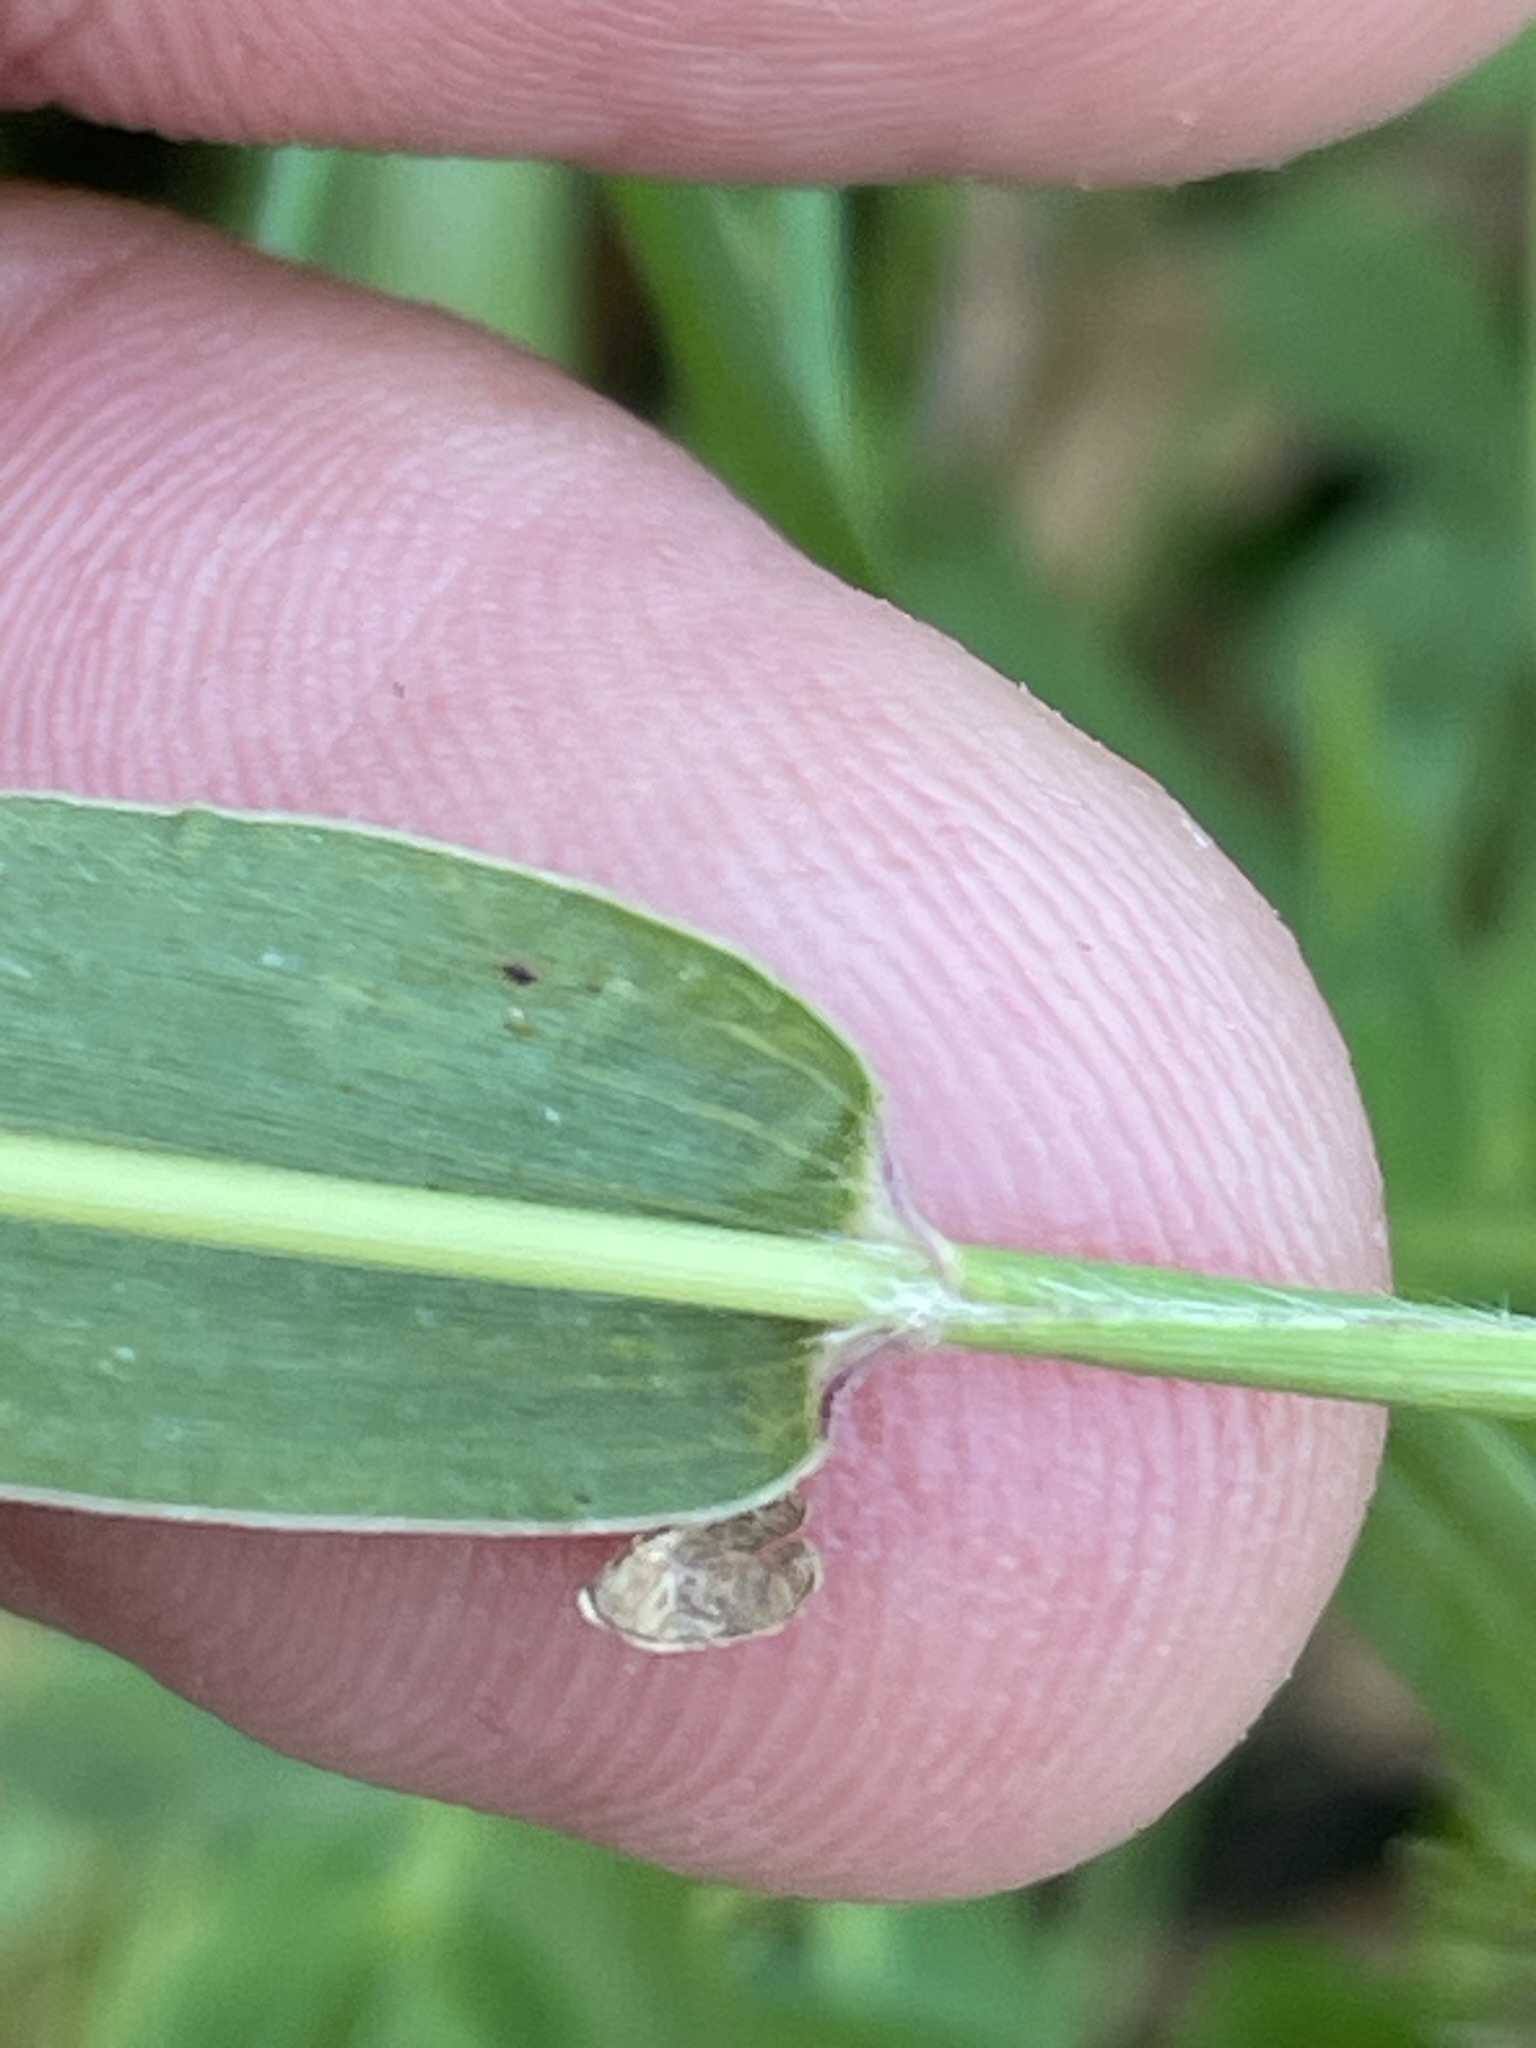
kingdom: Plantae
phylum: Tracheophyta
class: Liliopsida
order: Poales
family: Poaceae
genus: Setaria
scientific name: Setaria viridis
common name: Green bristlegrass
